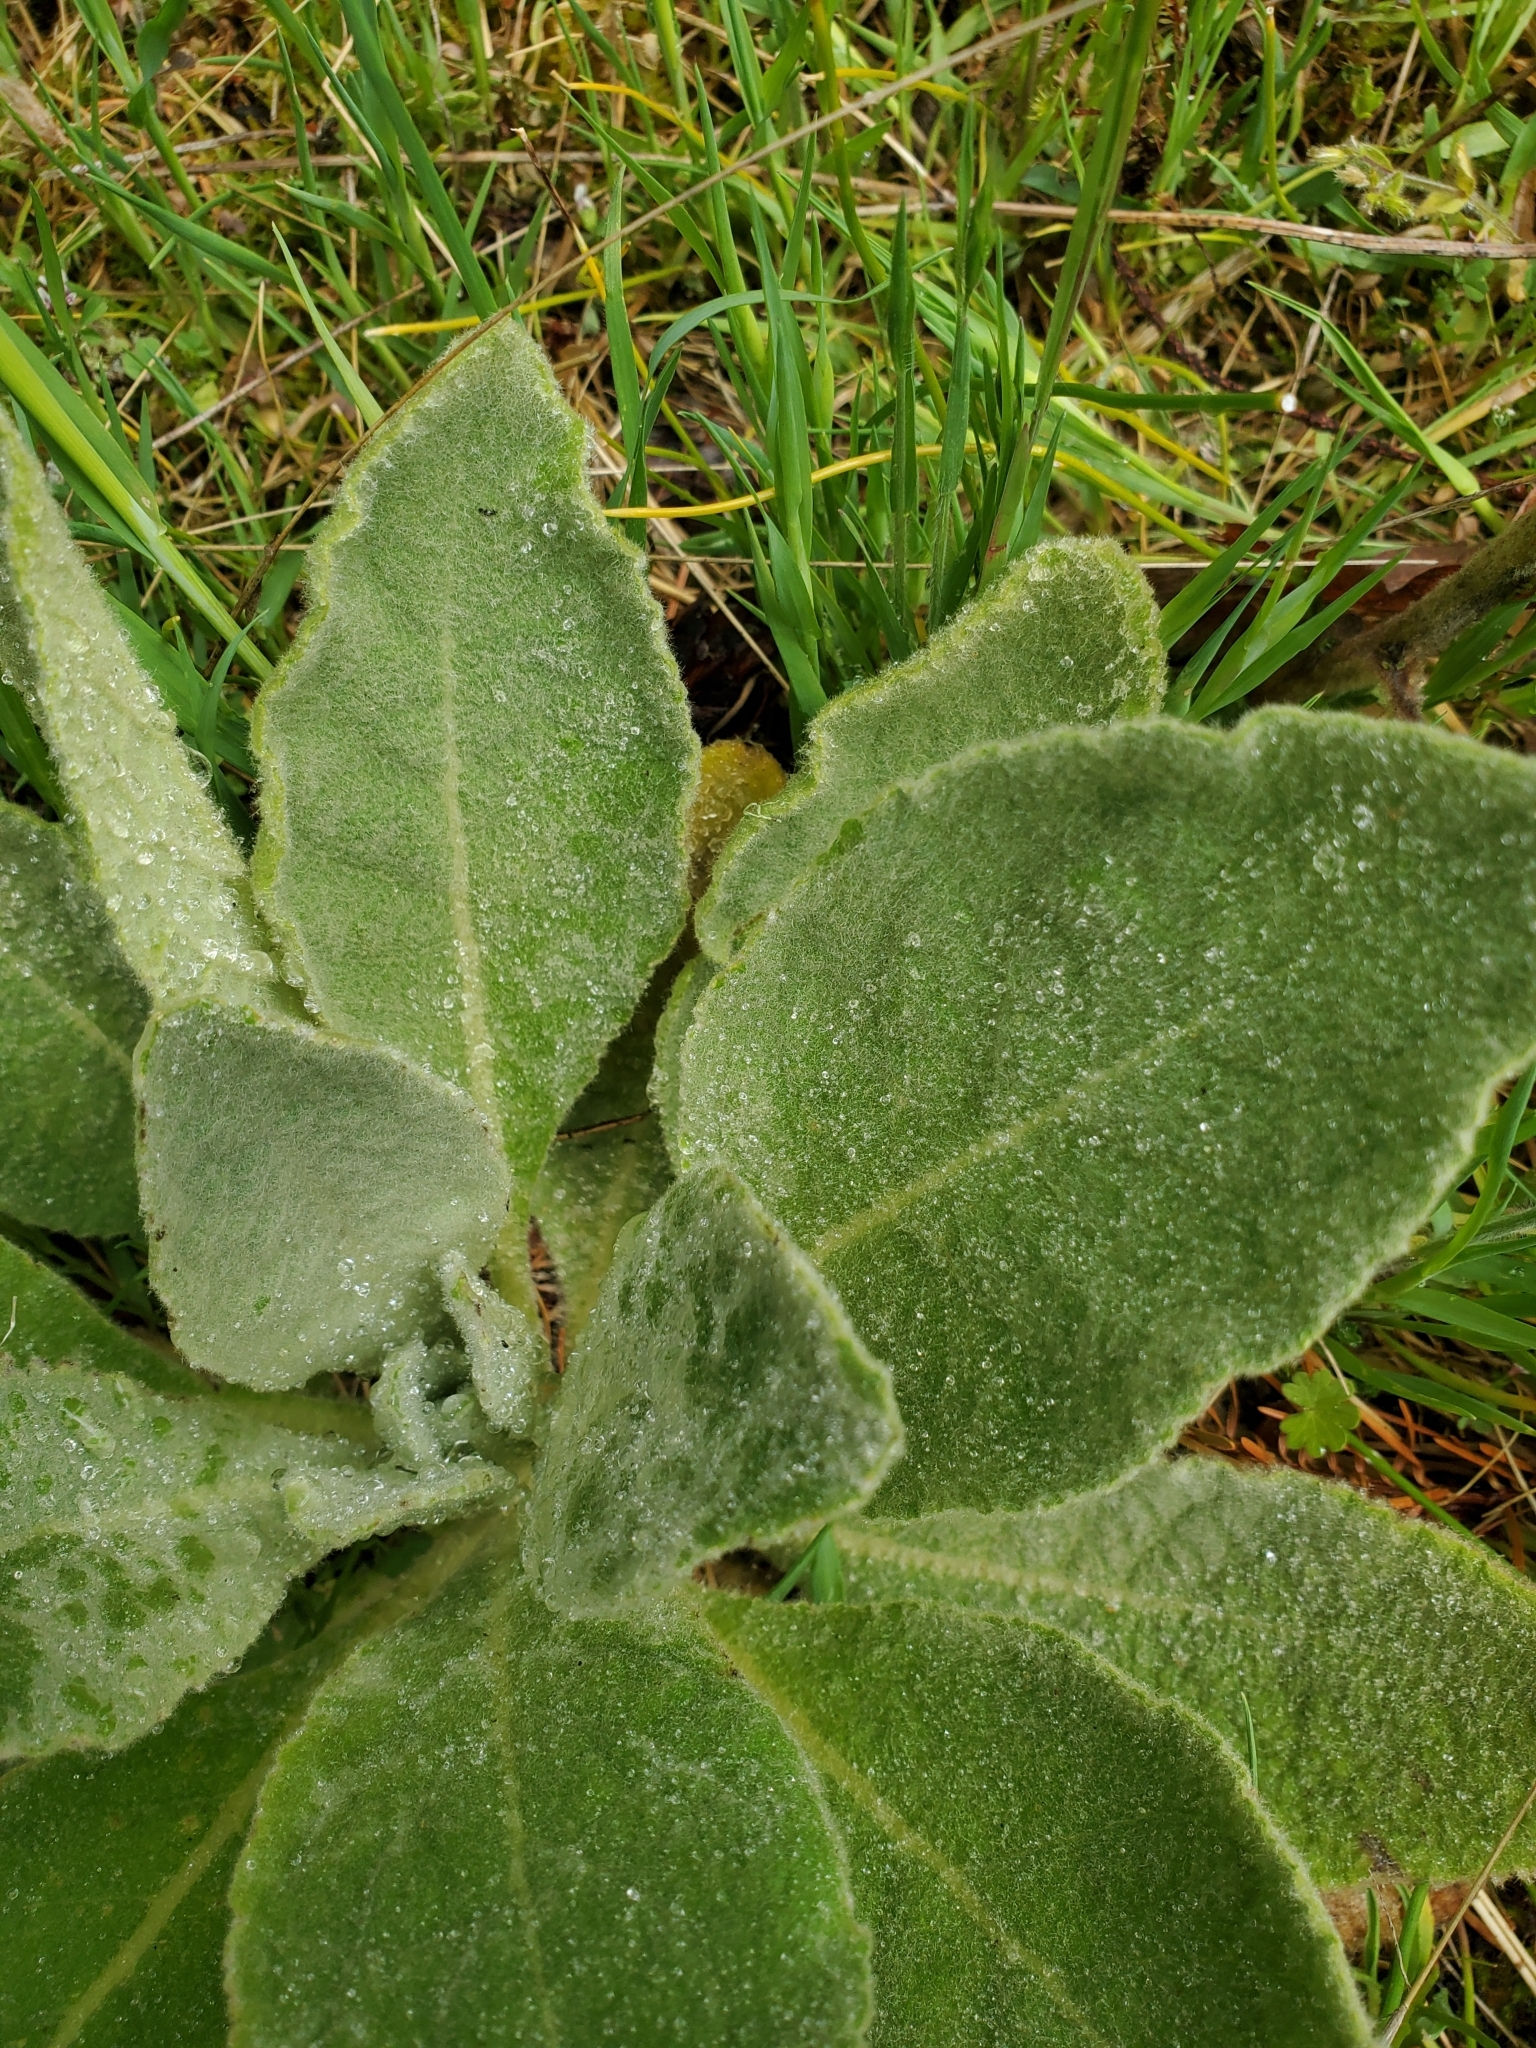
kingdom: Plantae
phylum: Tracheophyta
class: Magnoliopsida
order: Lamiales
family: Scrophulariaceae
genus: Verbascum
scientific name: Verbascum thapsus
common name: Common mullein
